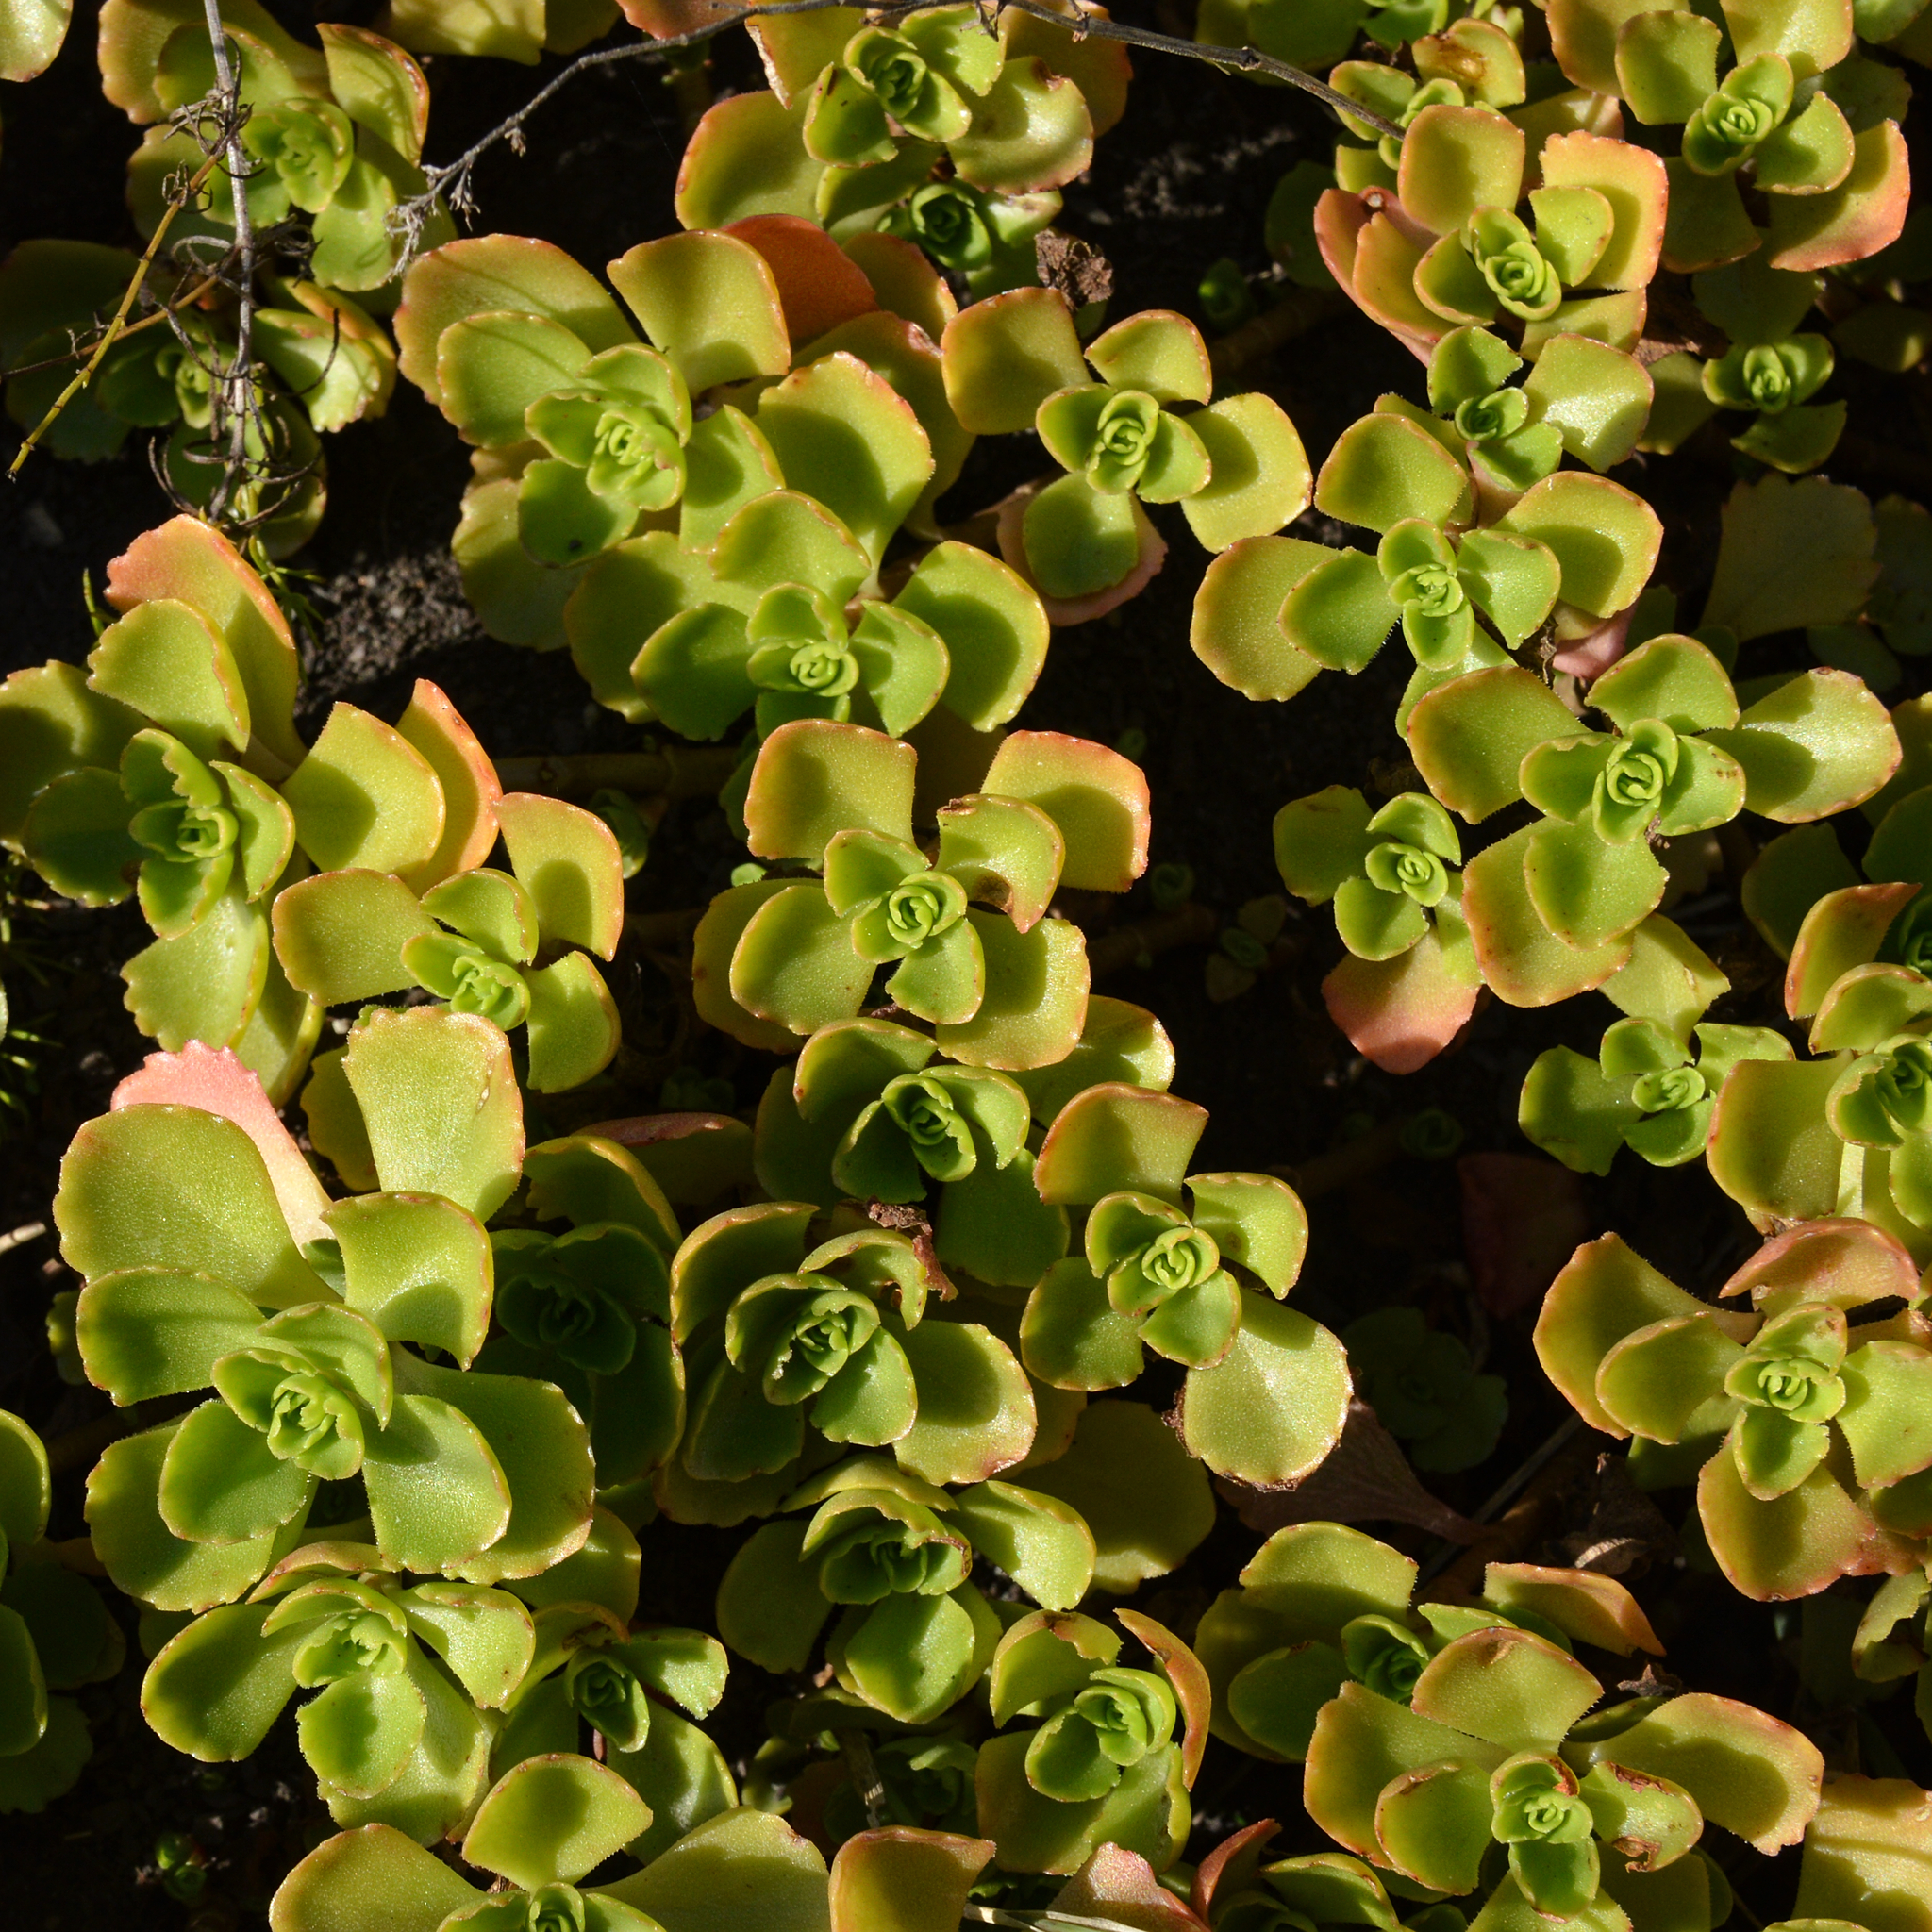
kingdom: Plantae
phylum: Tracheophyta
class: Magnoliopsida
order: Saxifragales
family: Crassulaceae
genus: Phedimus
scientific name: Phedimus spurius
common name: Caucasian stonecrop
